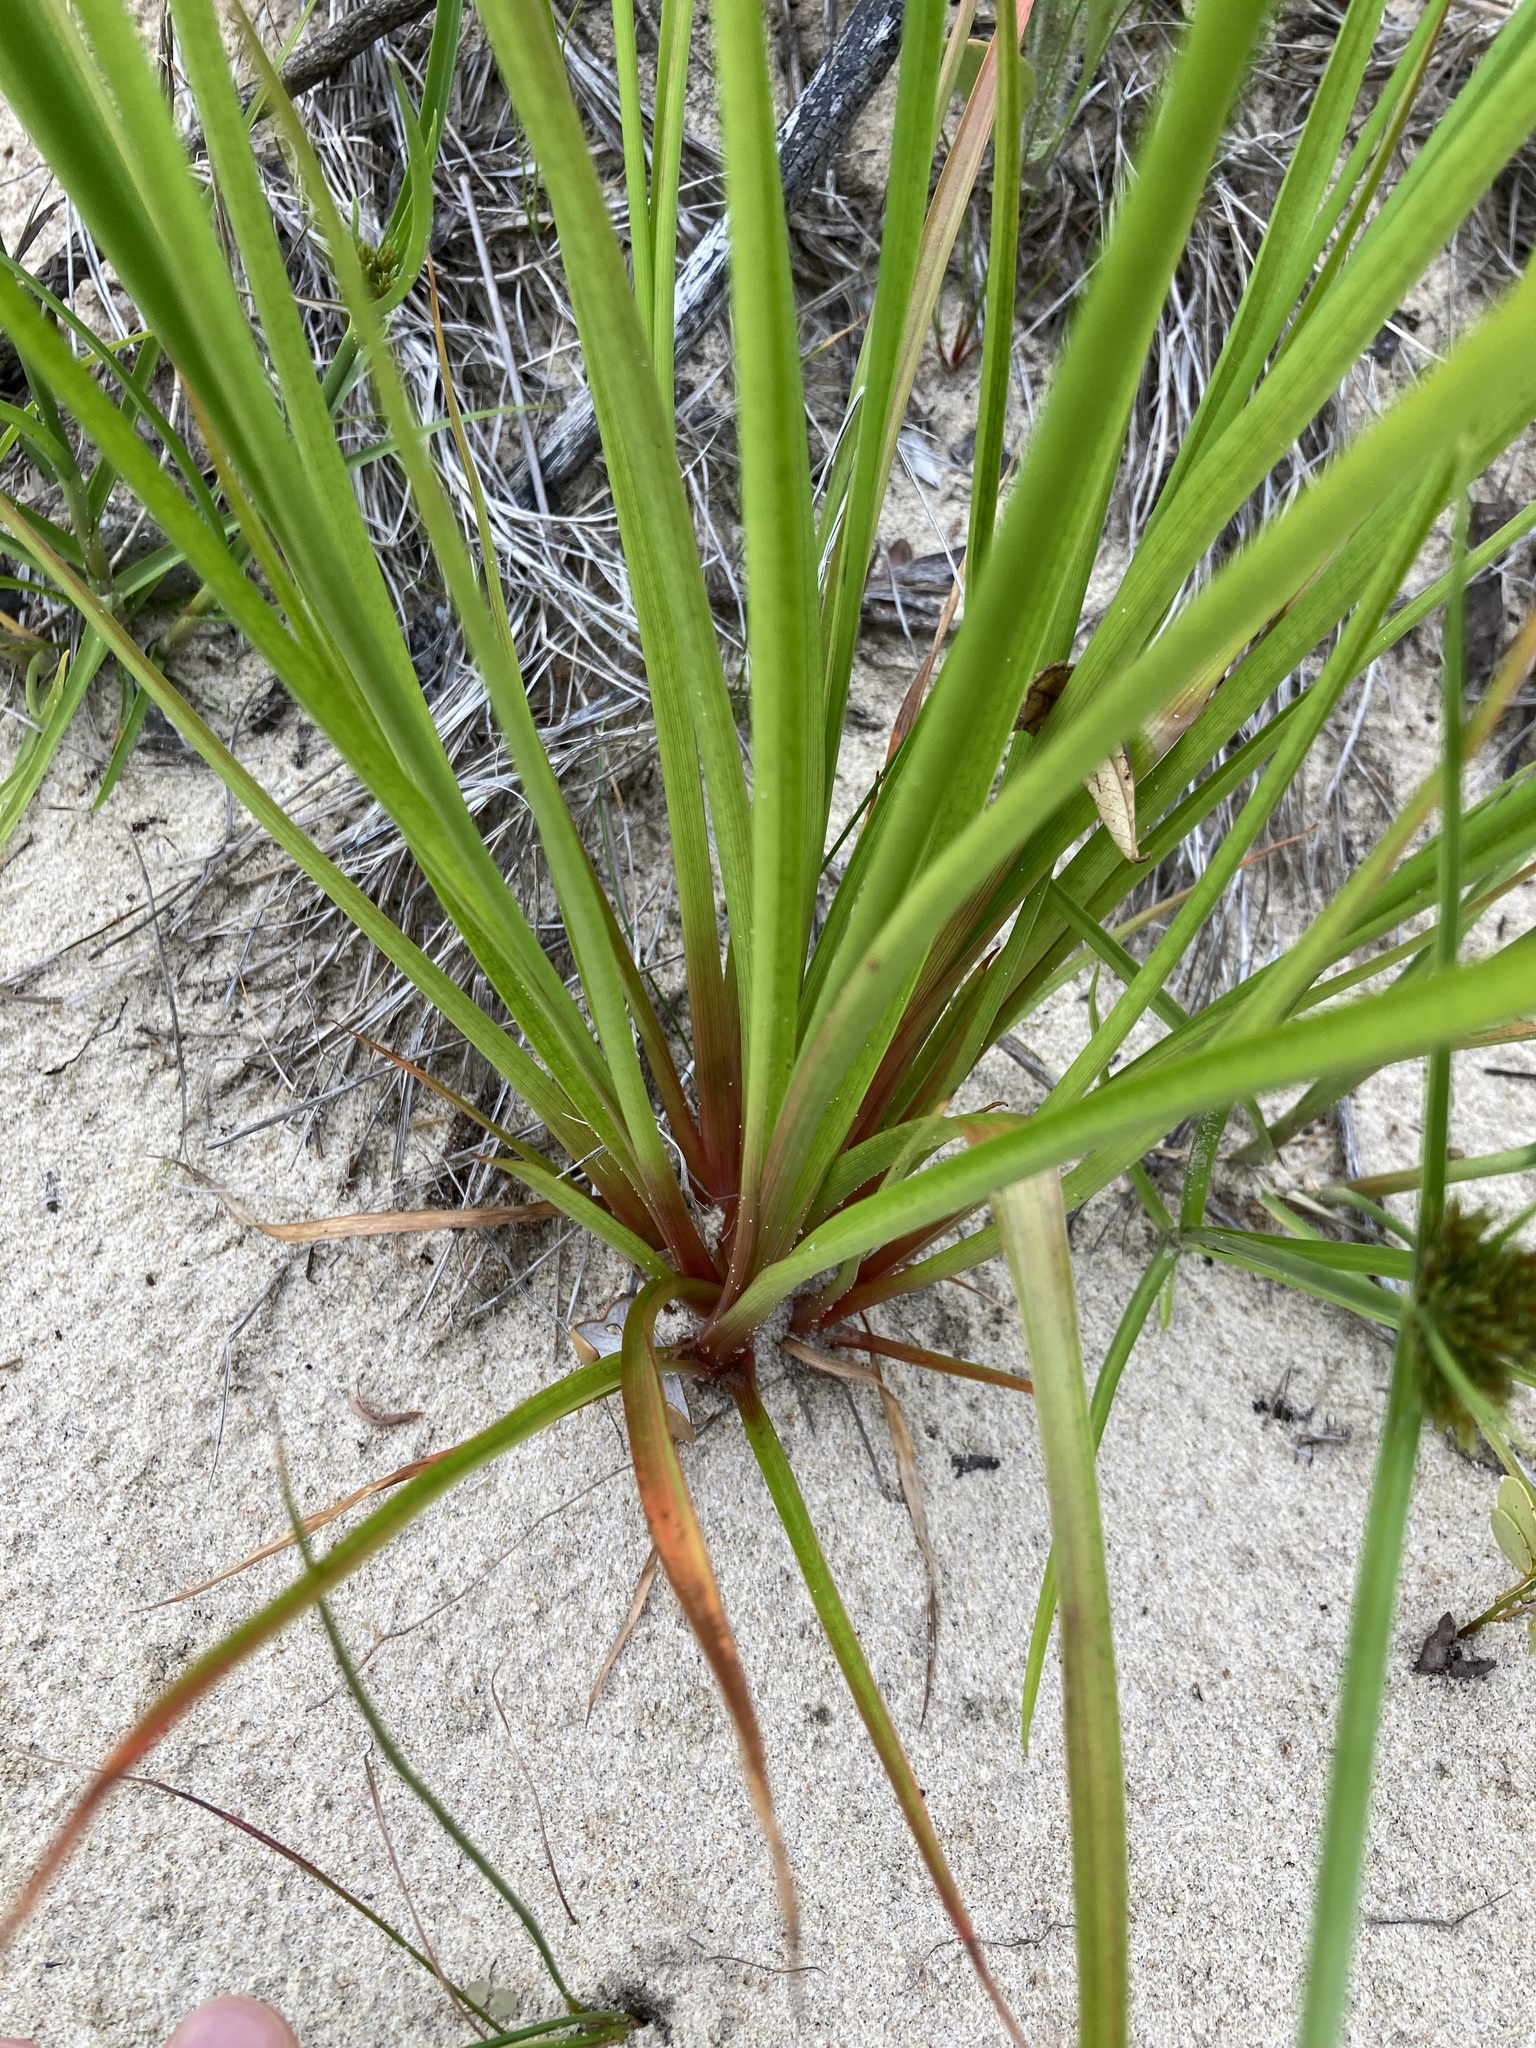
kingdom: Plantae
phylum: Tracheophyta
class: Liliopsida
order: Poales
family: Juncaceae
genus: Juncus
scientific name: Juncus planifolius
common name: Broadleaf rush
